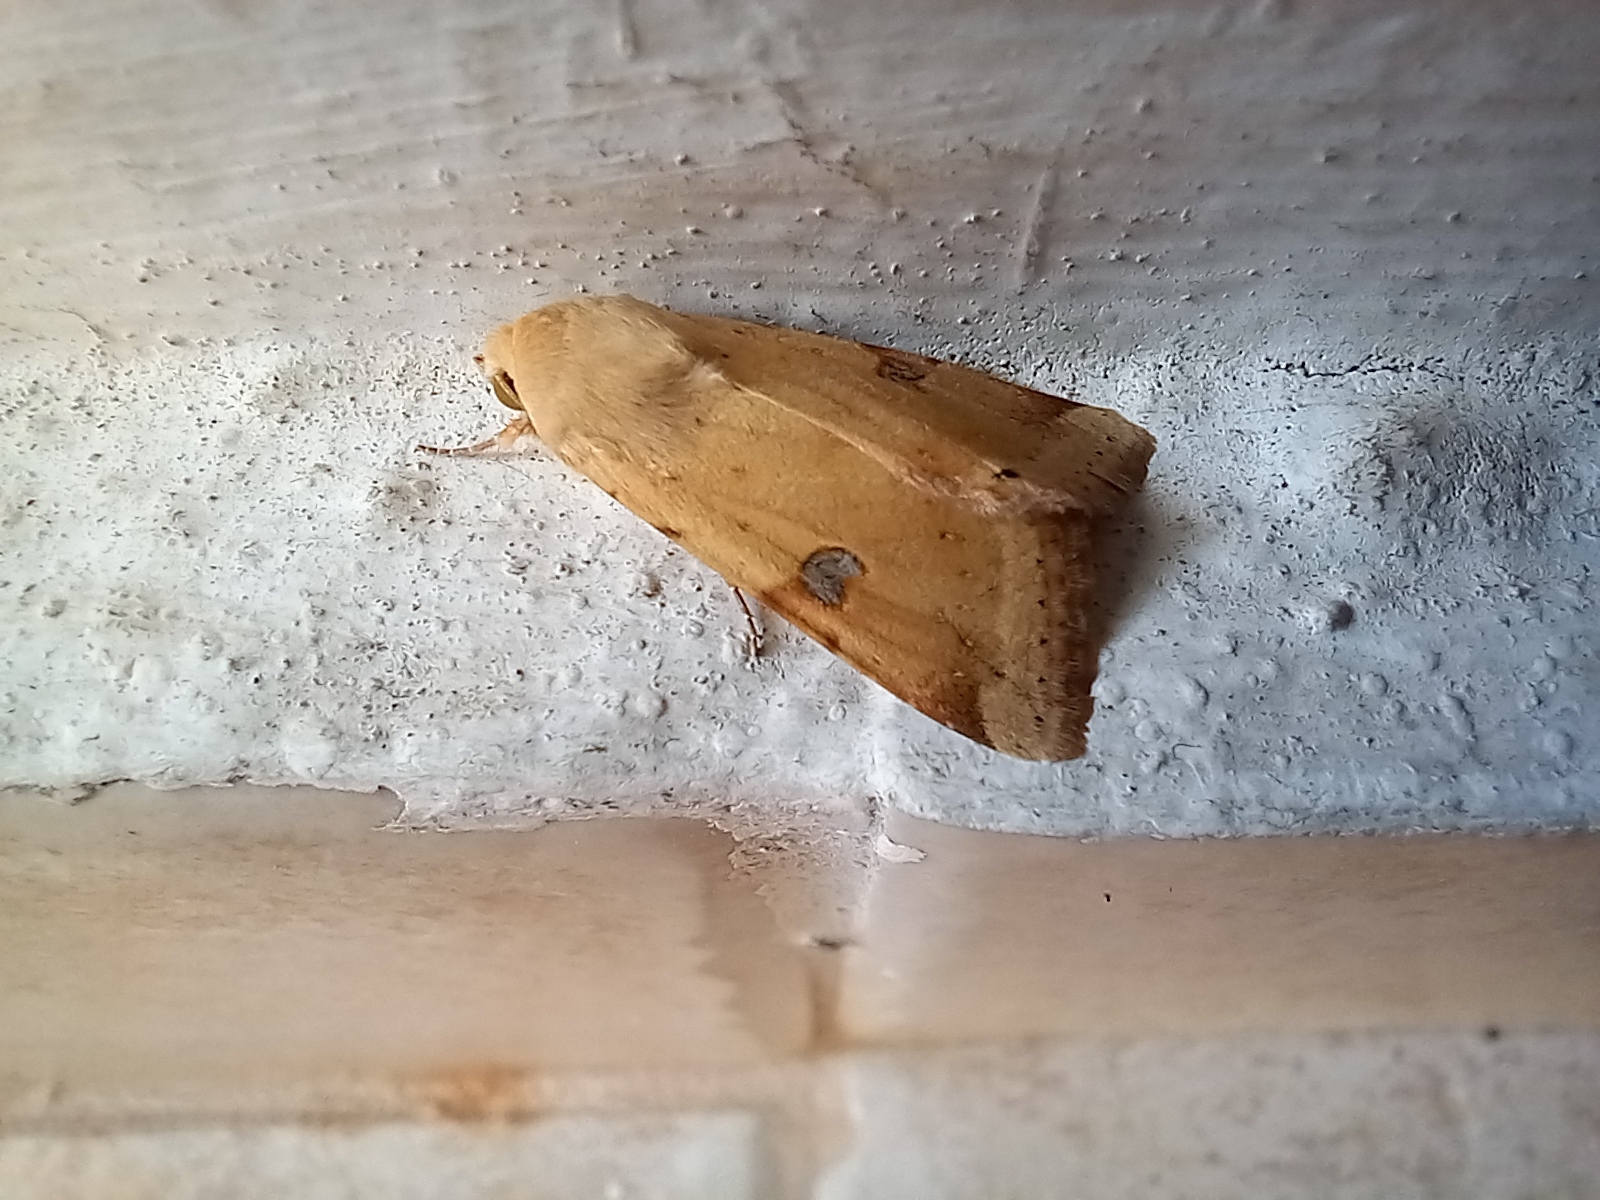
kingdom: Animalia
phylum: Arthropoda
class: Insecta
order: Lepidoptera
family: Noctuidae
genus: Heliothis
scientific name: Heliothis peltigera
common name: Bordered straw
